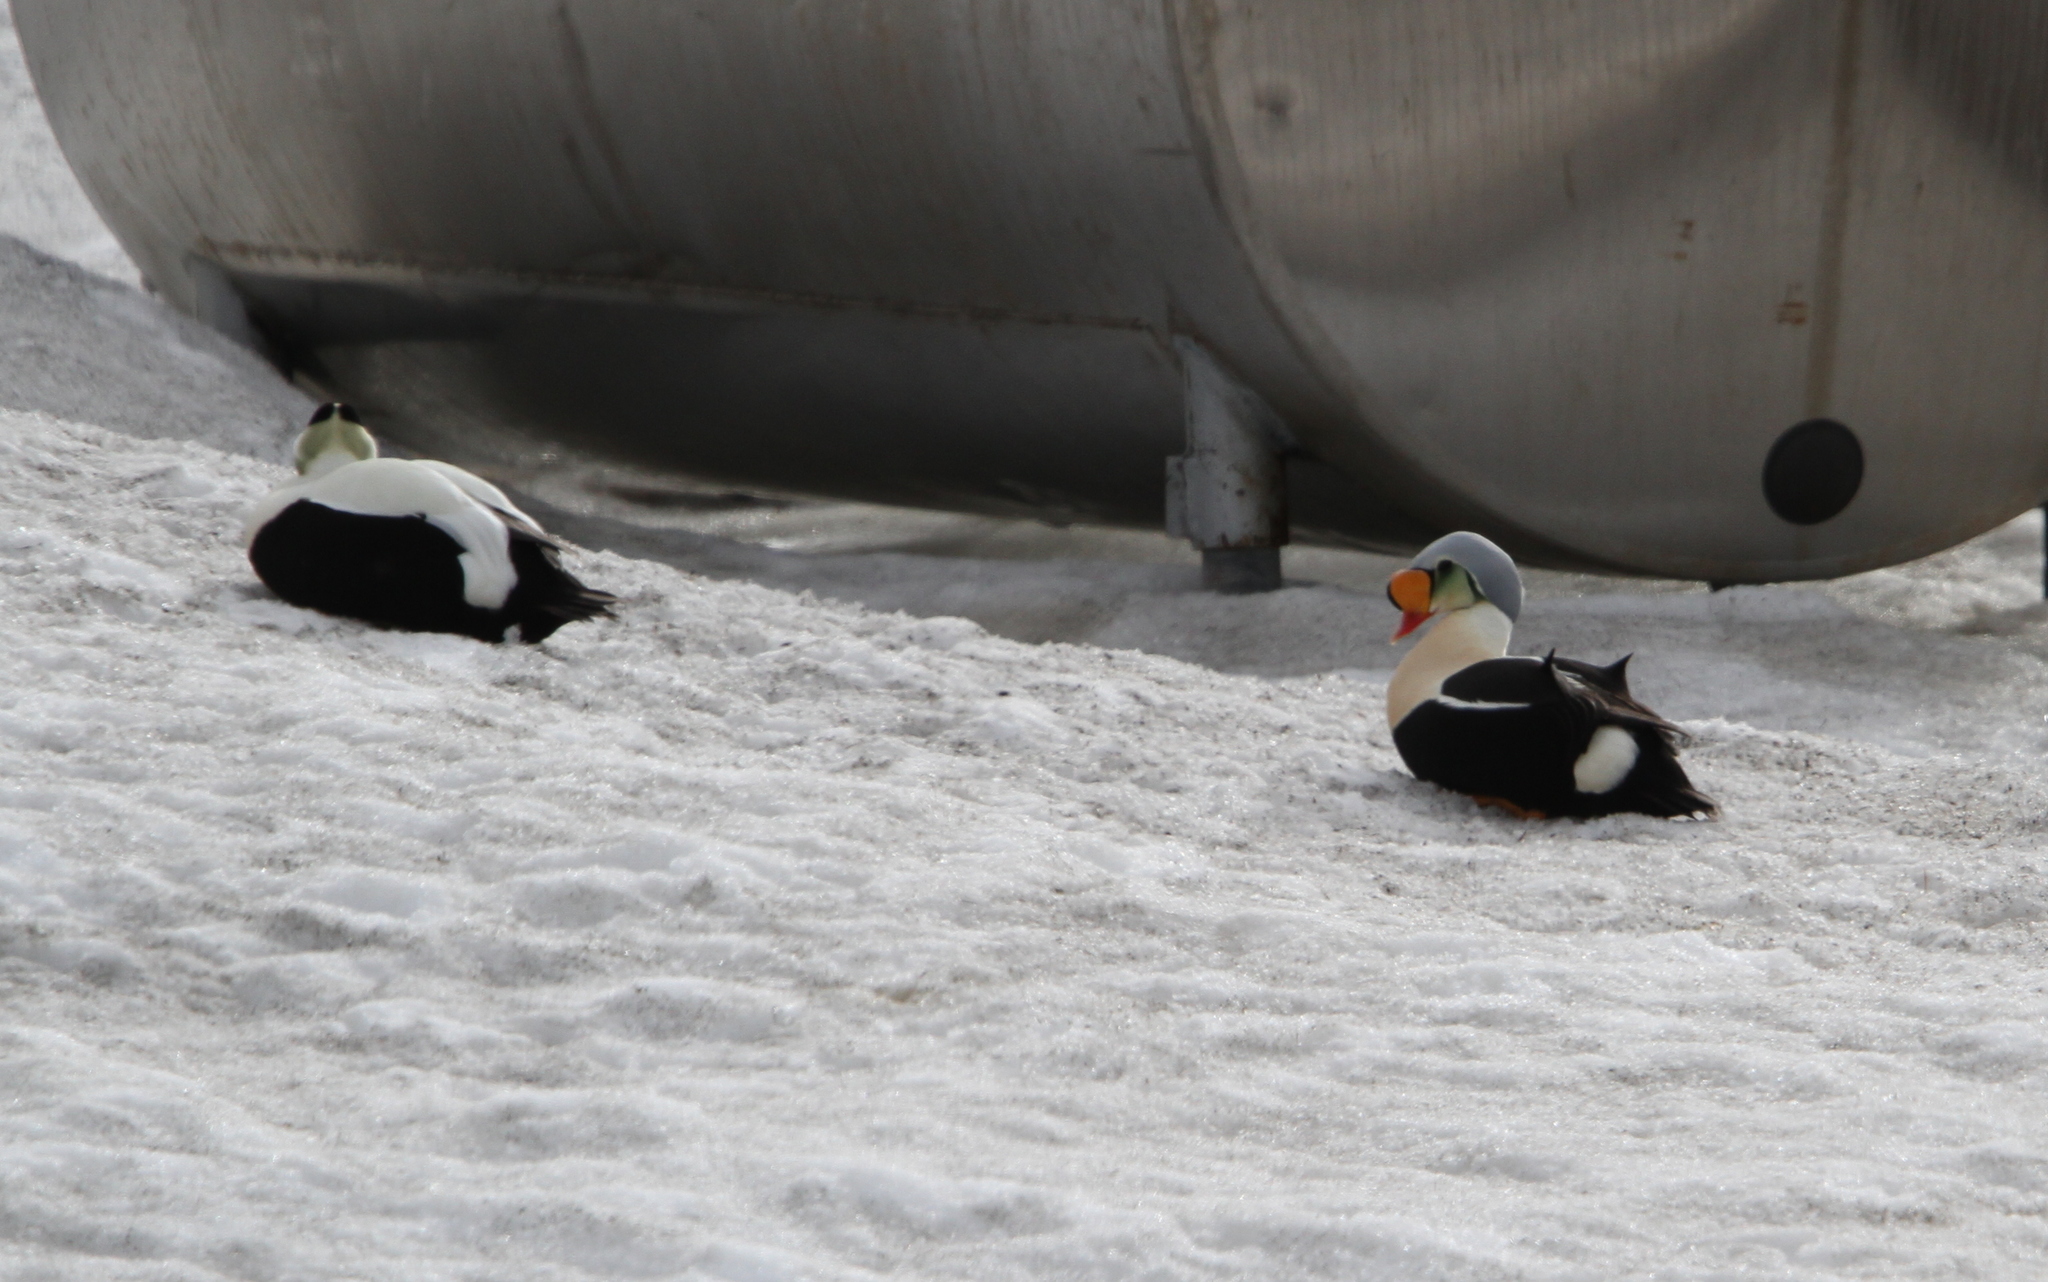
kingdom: Animalia
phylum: Chordata
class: Aves
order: Anseriformes
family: Anatidae
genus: Somateria
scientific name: Somateria spectabilis
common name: King eider
